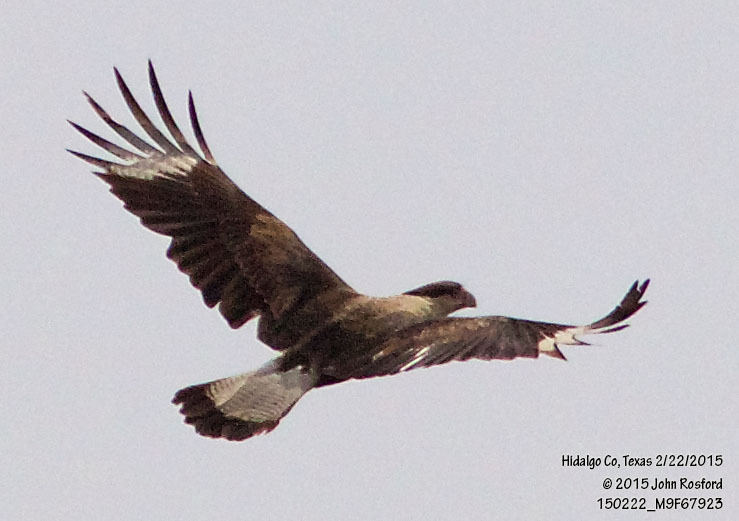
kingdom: Animalia
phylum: Chordata
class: Aves
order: Falconiformes
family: Falconidae
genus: Caracara
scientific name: Caracara plancus
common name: Southern caracara
